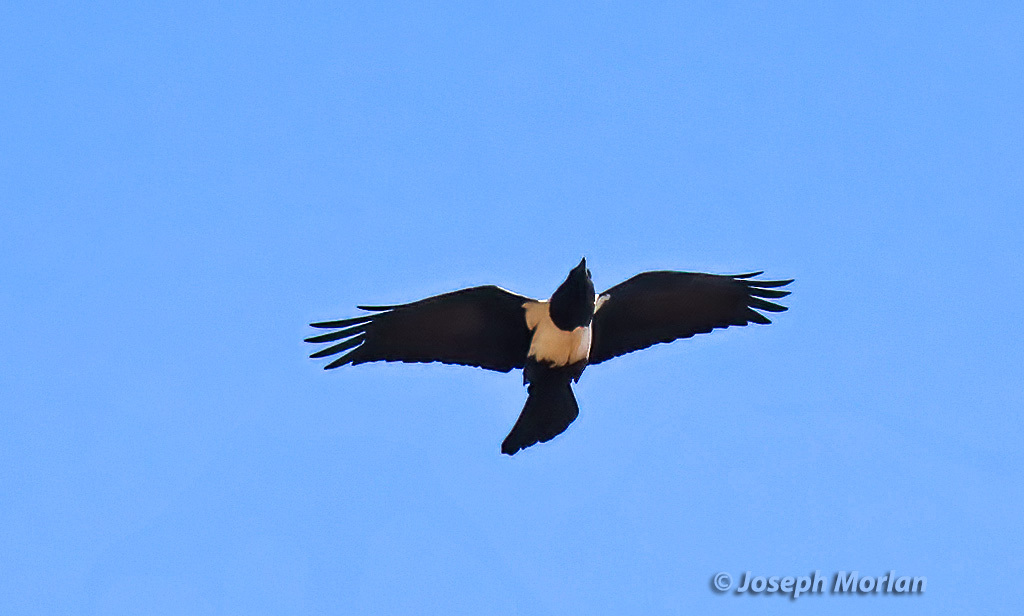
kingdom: Animalia
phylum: Chordata
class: Aves
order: Passeriformes
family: Corvidae
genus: Corvus
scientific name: Corvus albus
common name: Pied crow
